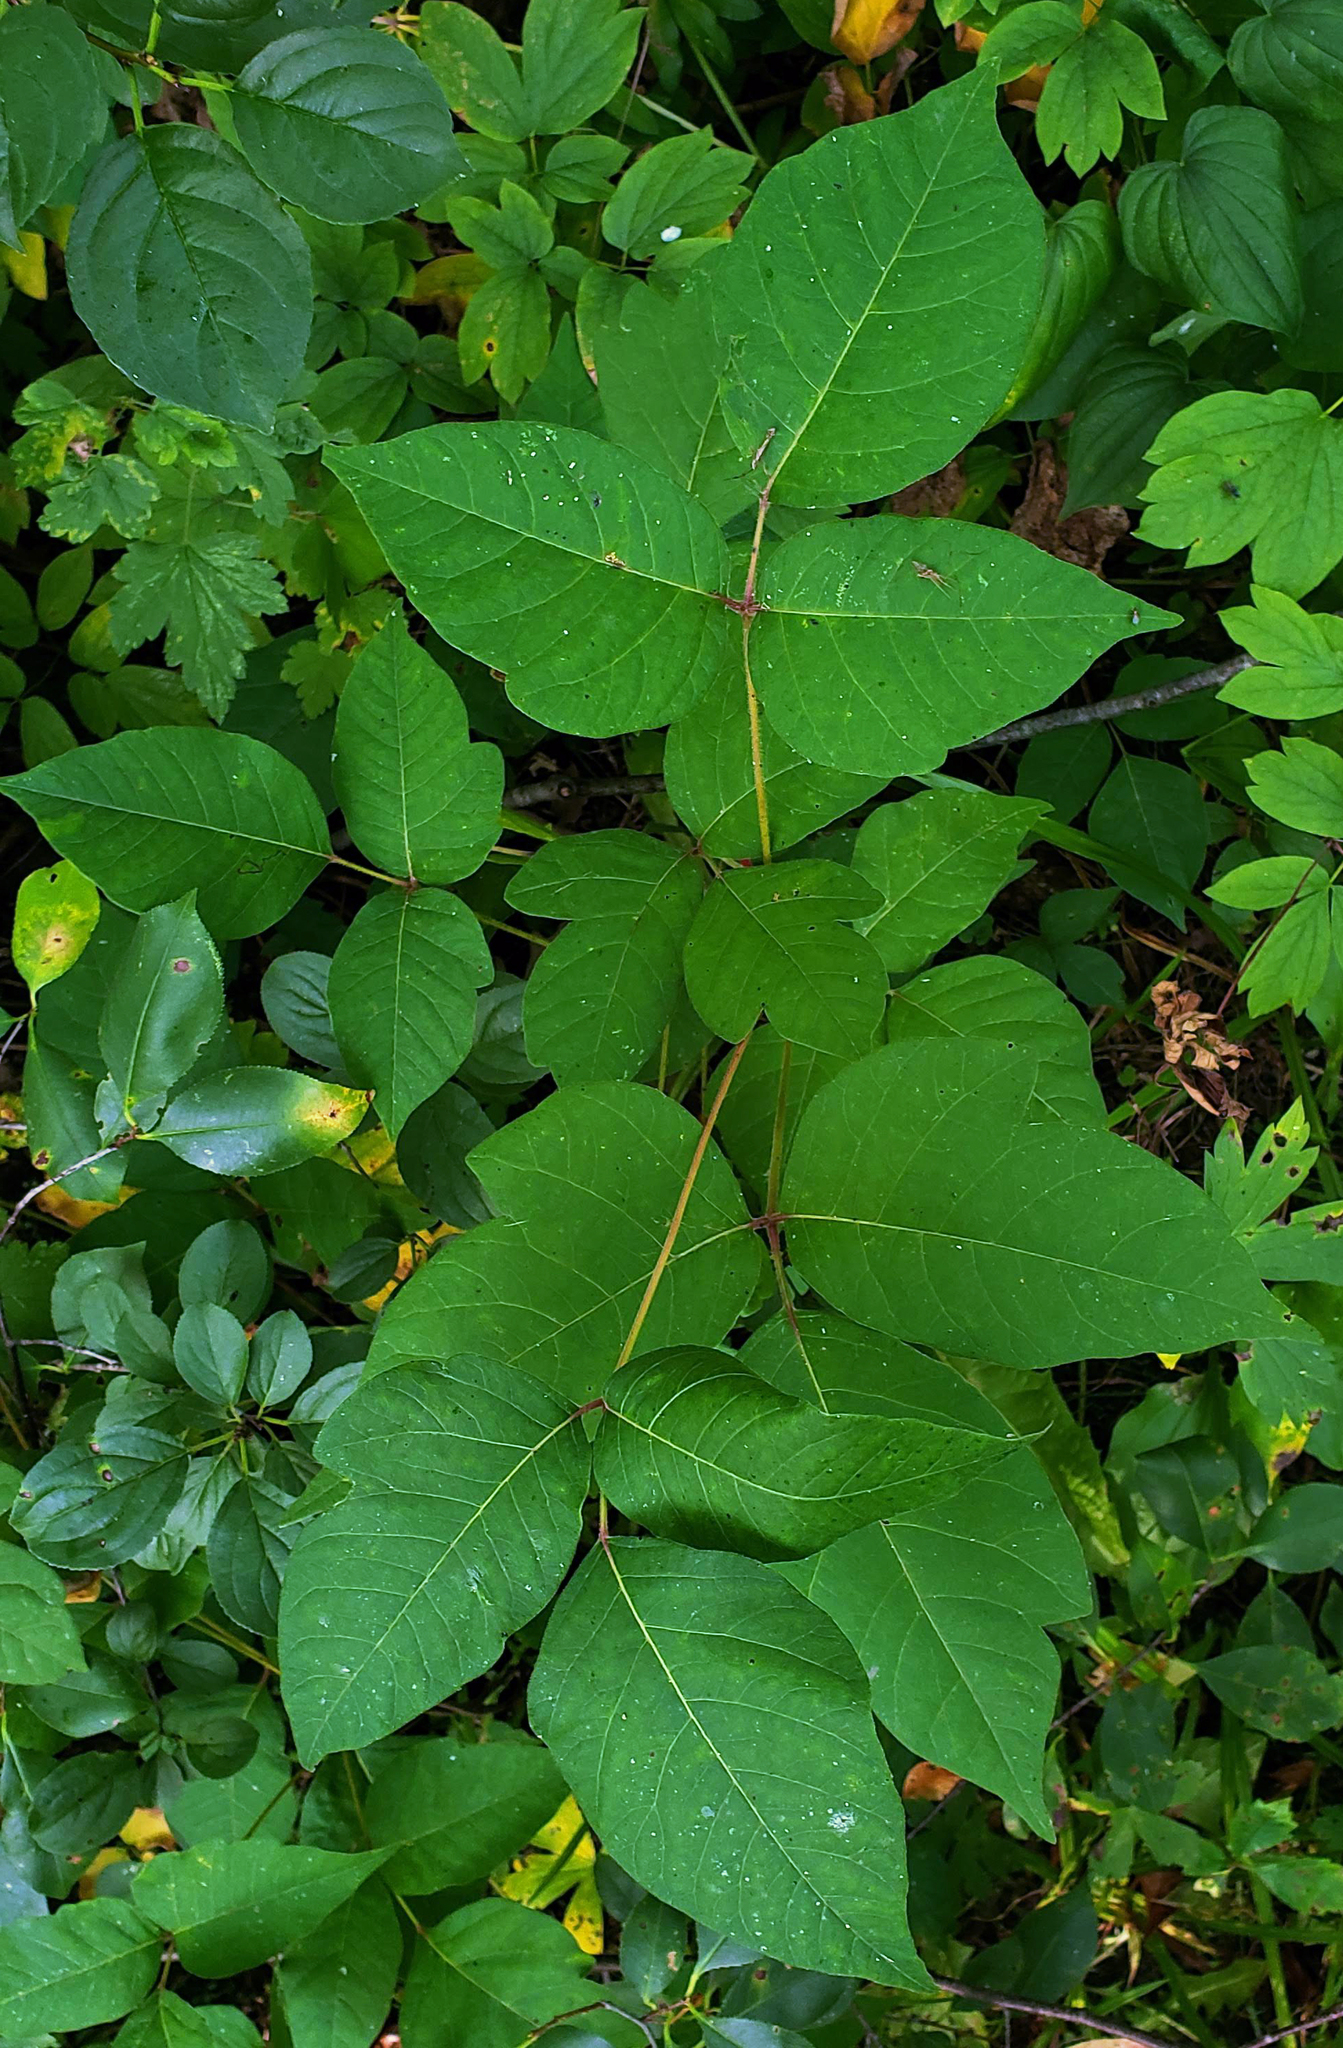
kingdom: Plantae
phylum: Tracheophyta
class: Magnoliopsida
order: Sapindales
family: Anacardiaceae
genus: Toxicodendron
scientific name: Toxicodendron radicans
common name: Poison ivy
